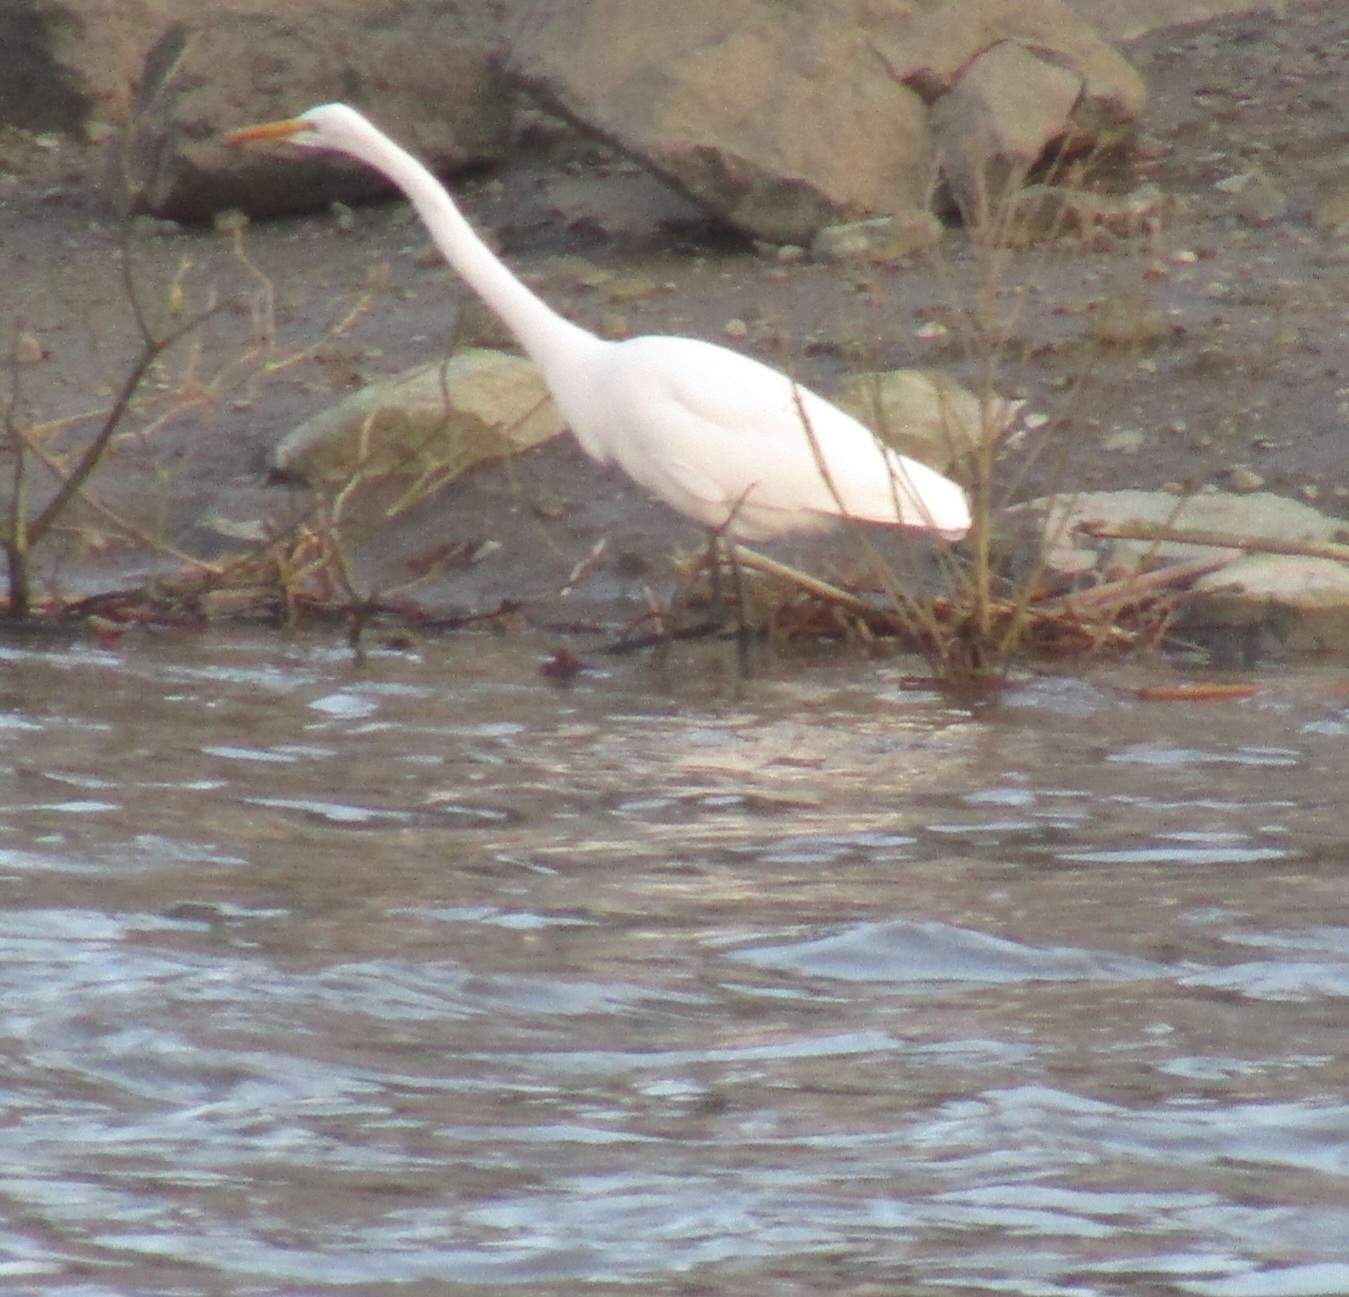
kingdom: Animalia
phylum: Chordata
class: Aves
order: Pelecaniformes
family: Ardeidae
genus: Ardea
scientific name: Ardea alba
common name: Great egret
